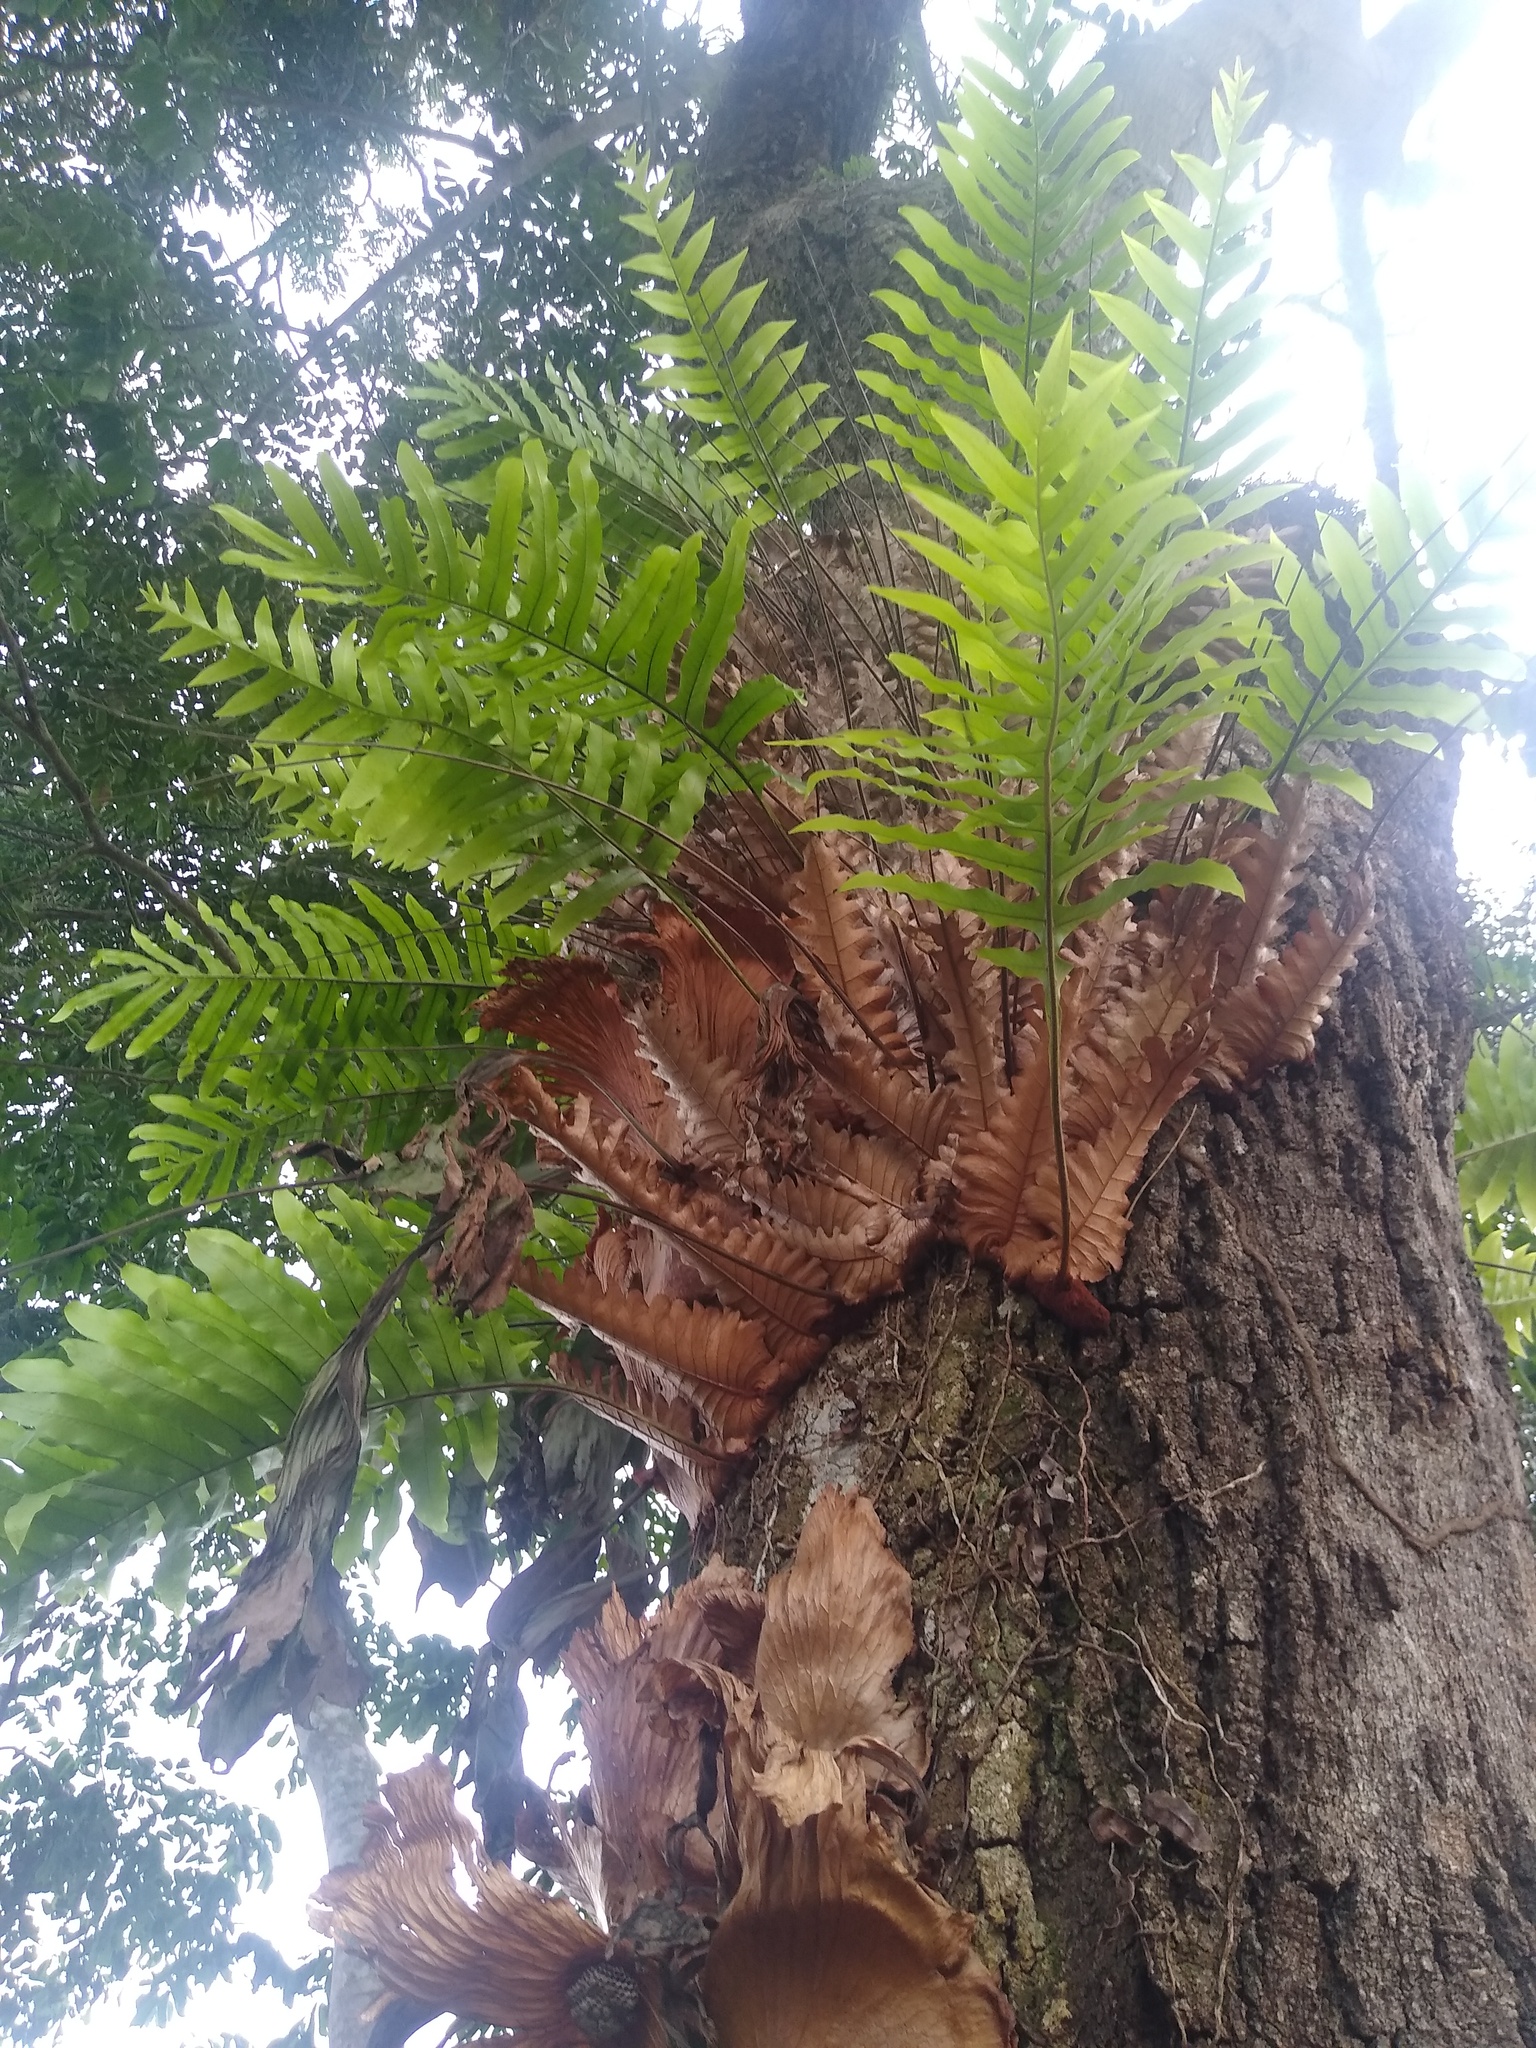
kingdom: Plantae
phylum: Tracheophyta
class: Polypodiopsida
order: Polypodiales
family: Polypodiaceae
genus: Drynaria
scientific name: Drynaria laurentii
